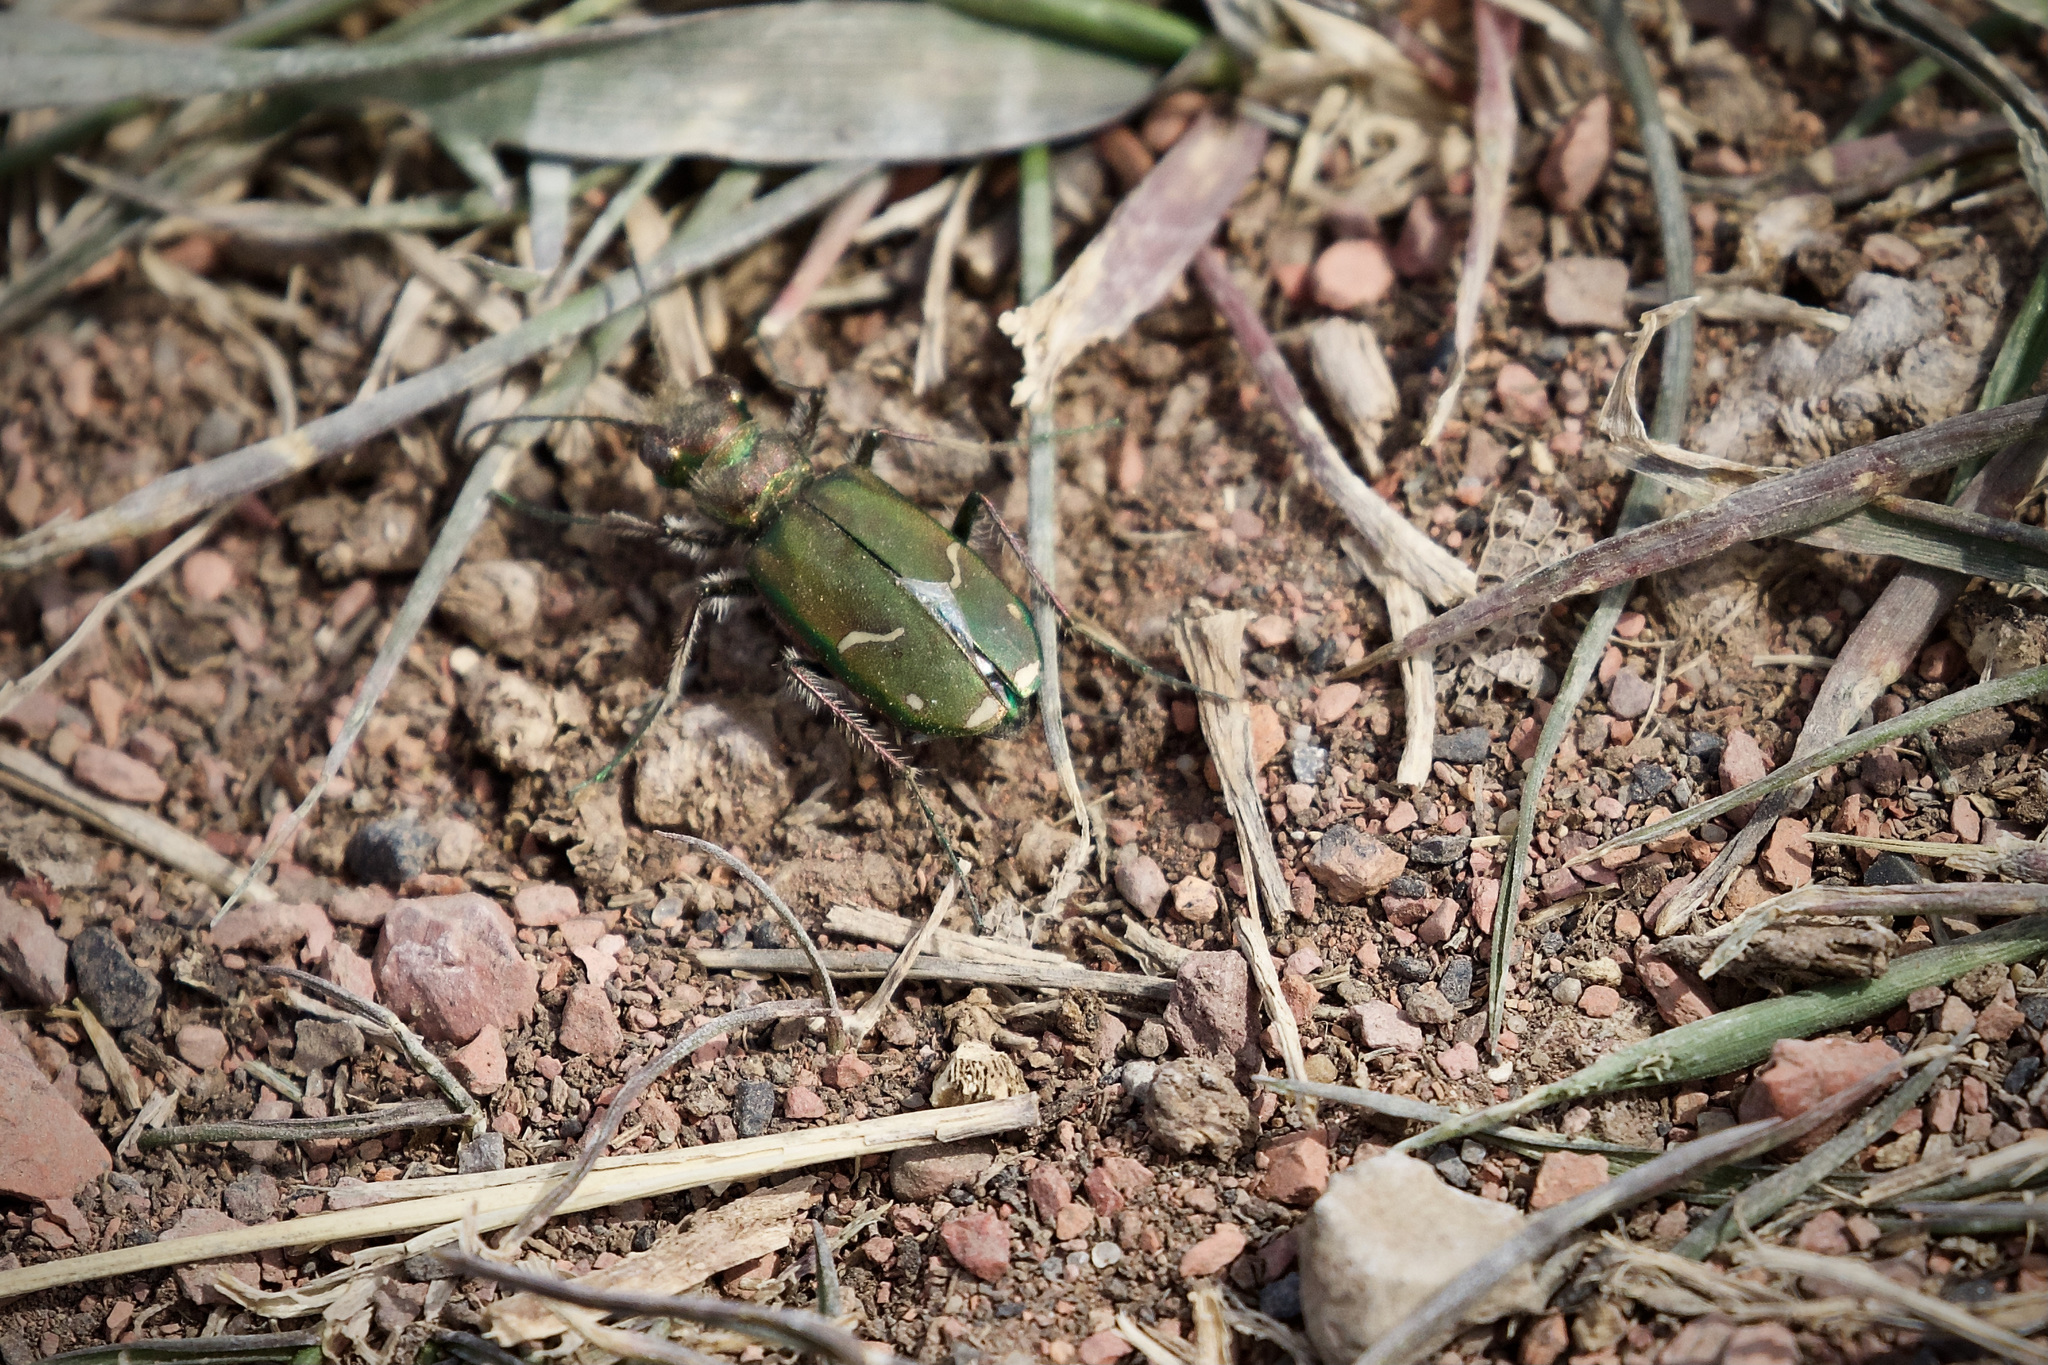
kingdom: Animalia
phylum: Arthropoda
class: Insecta
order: Coleoptera
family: Carabidae
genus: Cicindela
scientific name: Cicindela purpurea
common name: Cow path tiger beetle
